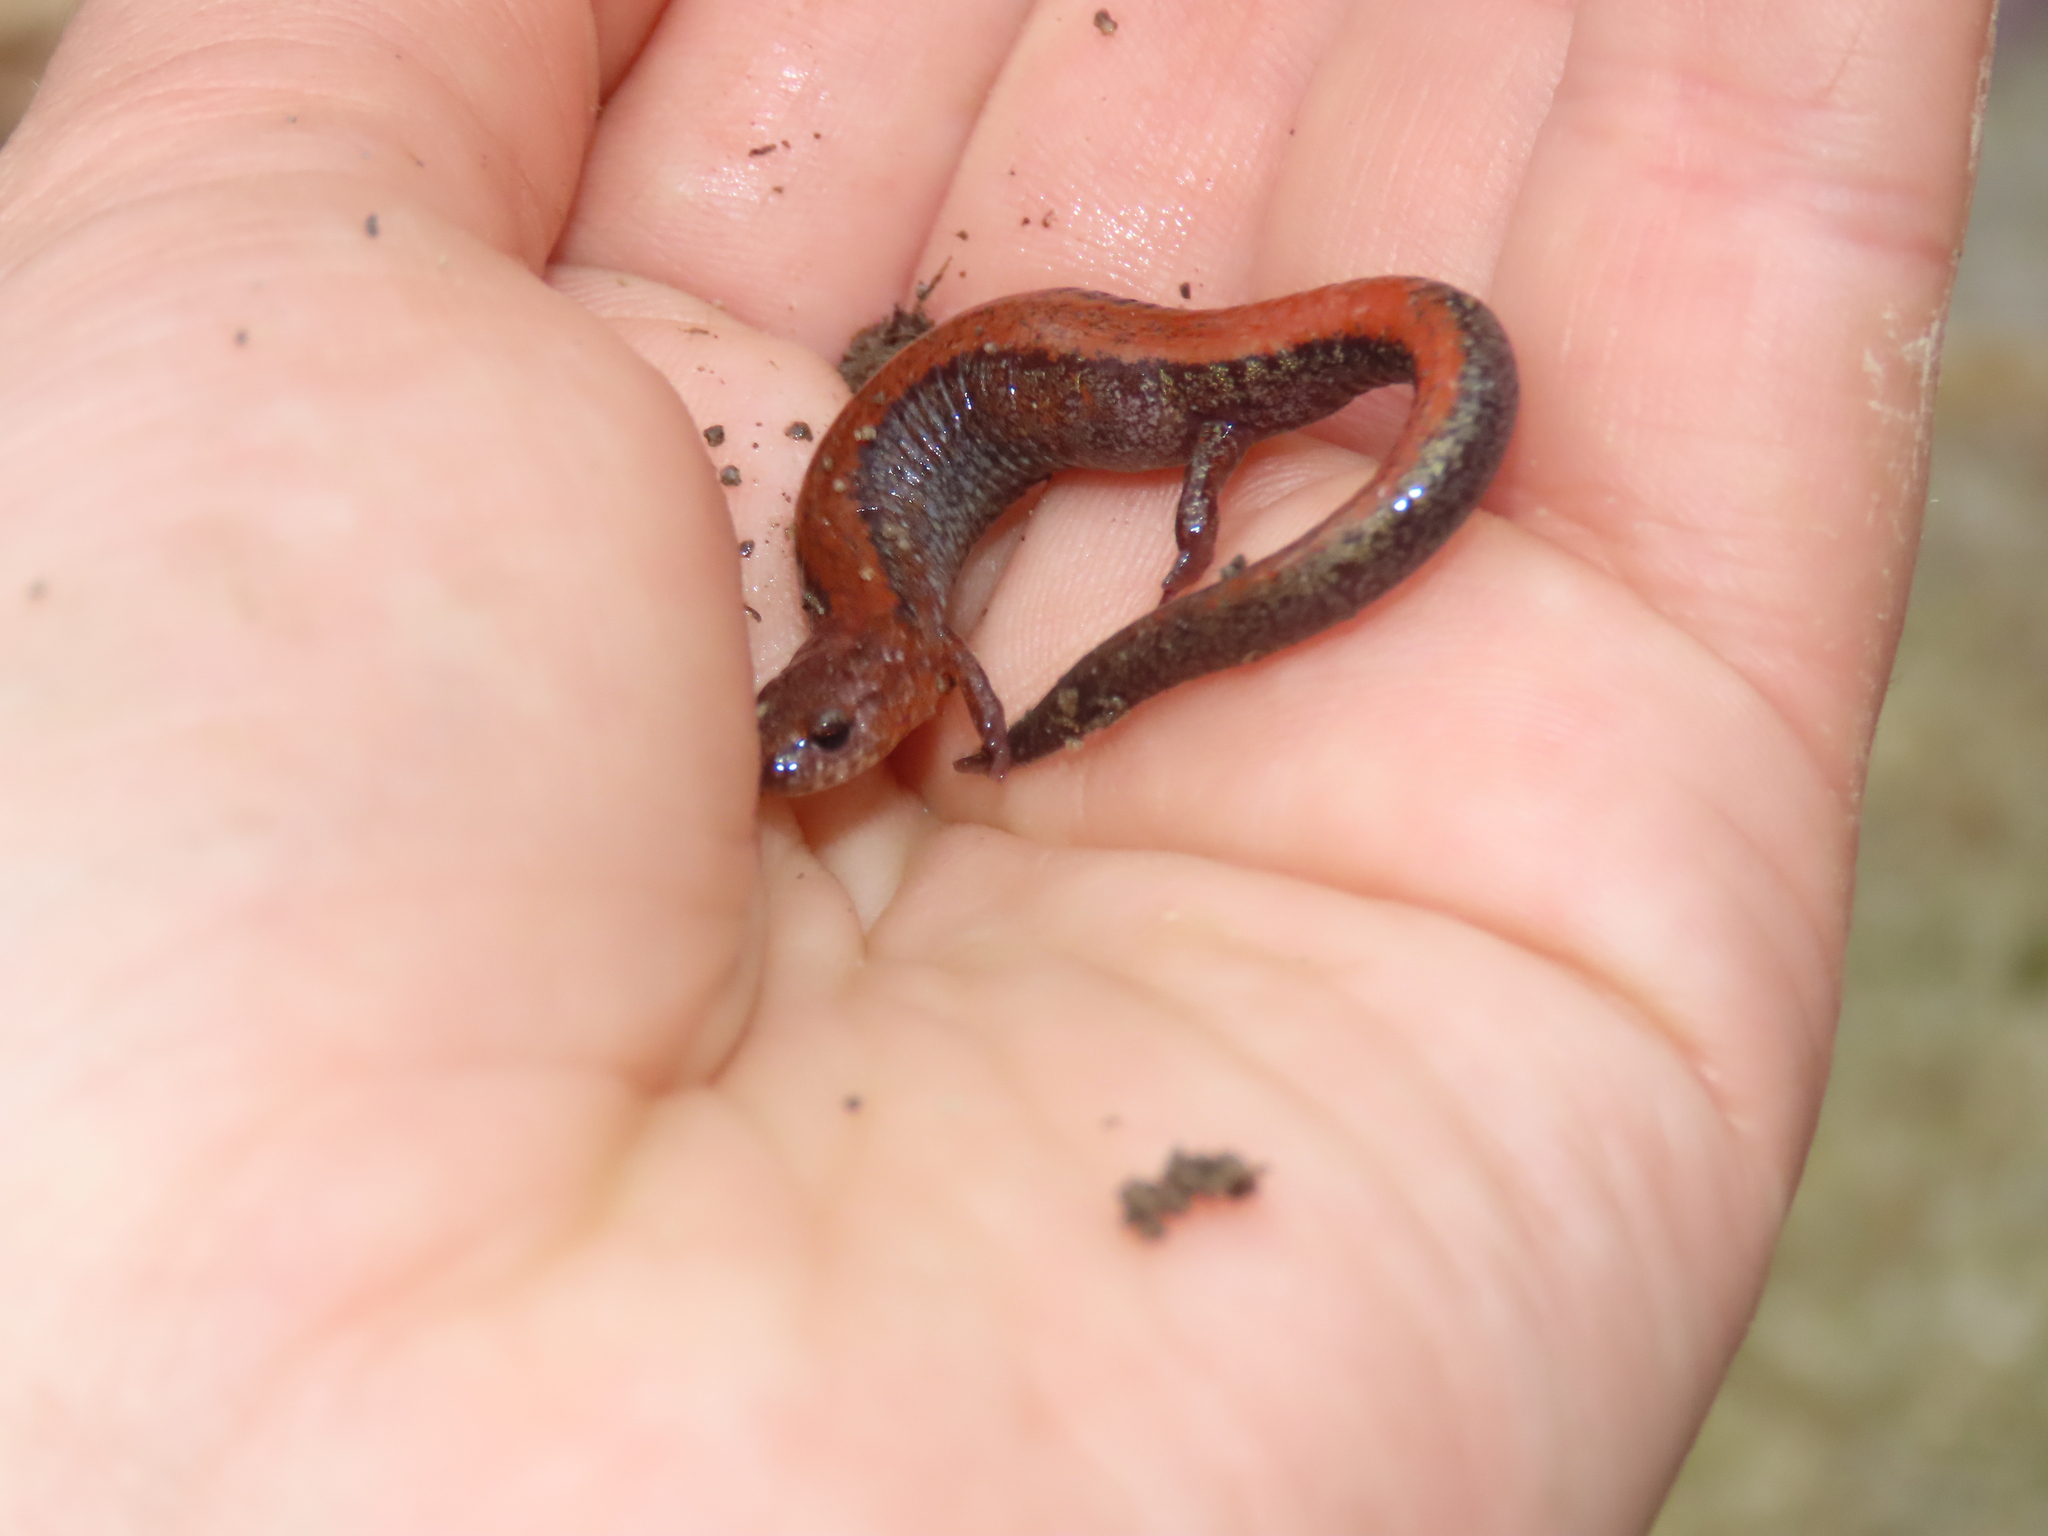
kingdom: Animalia
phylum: Chordata
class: Amphibia
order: Caudata
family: Plethodontidae
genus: Plethodon
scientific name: Plethodon cinereus
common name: Redback salamander
